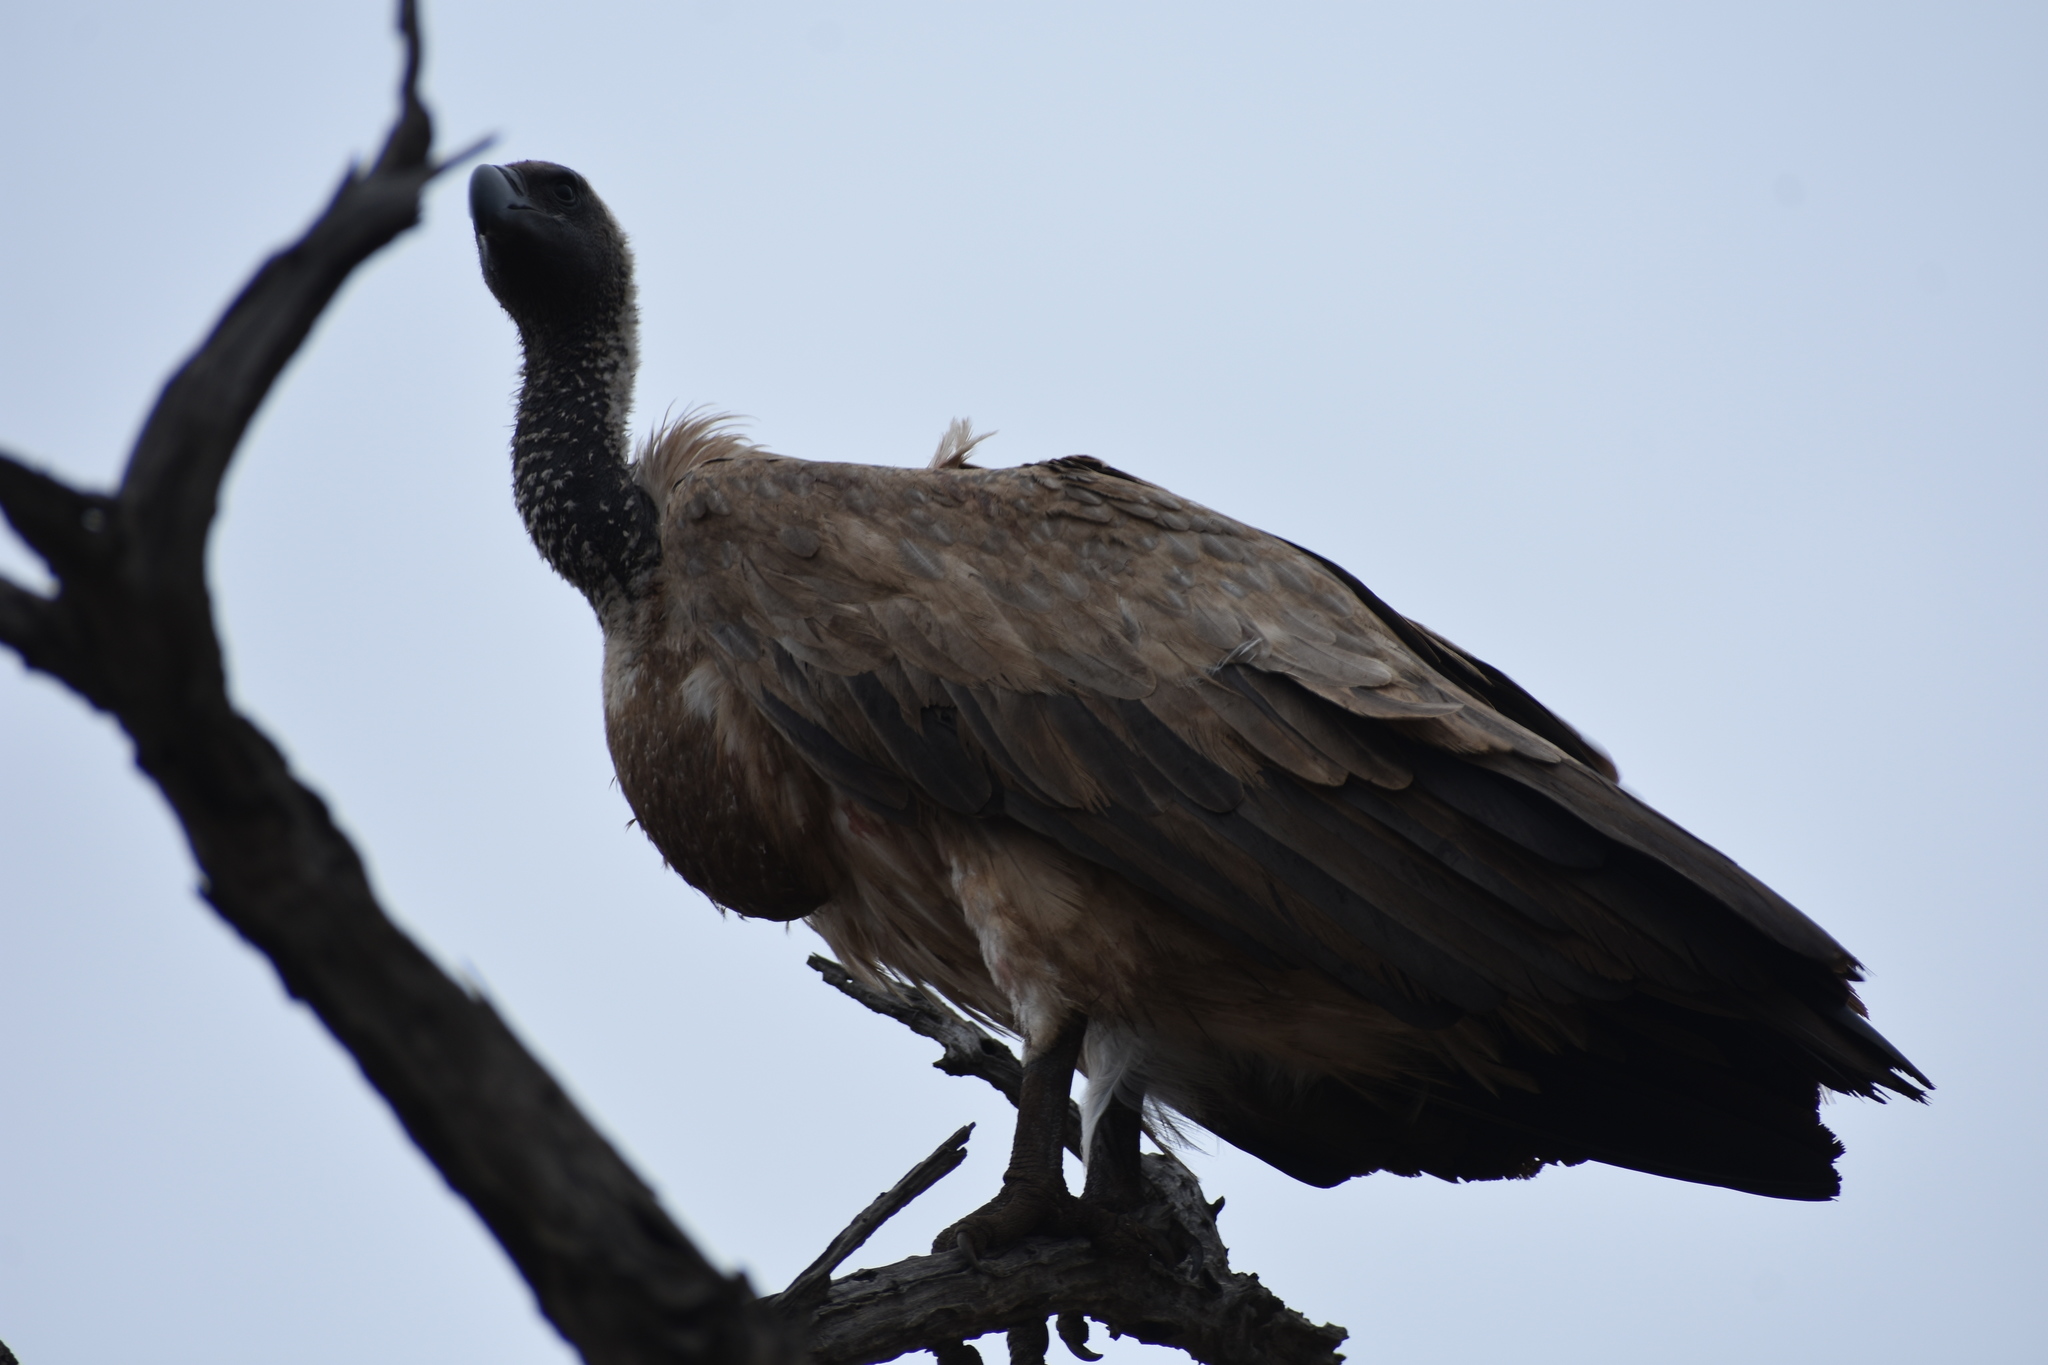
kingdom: Animalia
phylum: Chordata
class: Aves
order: Accipitriformes
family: Accipitridae
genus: Gyps
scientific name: Gyps africanus
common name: White-backed vulture
